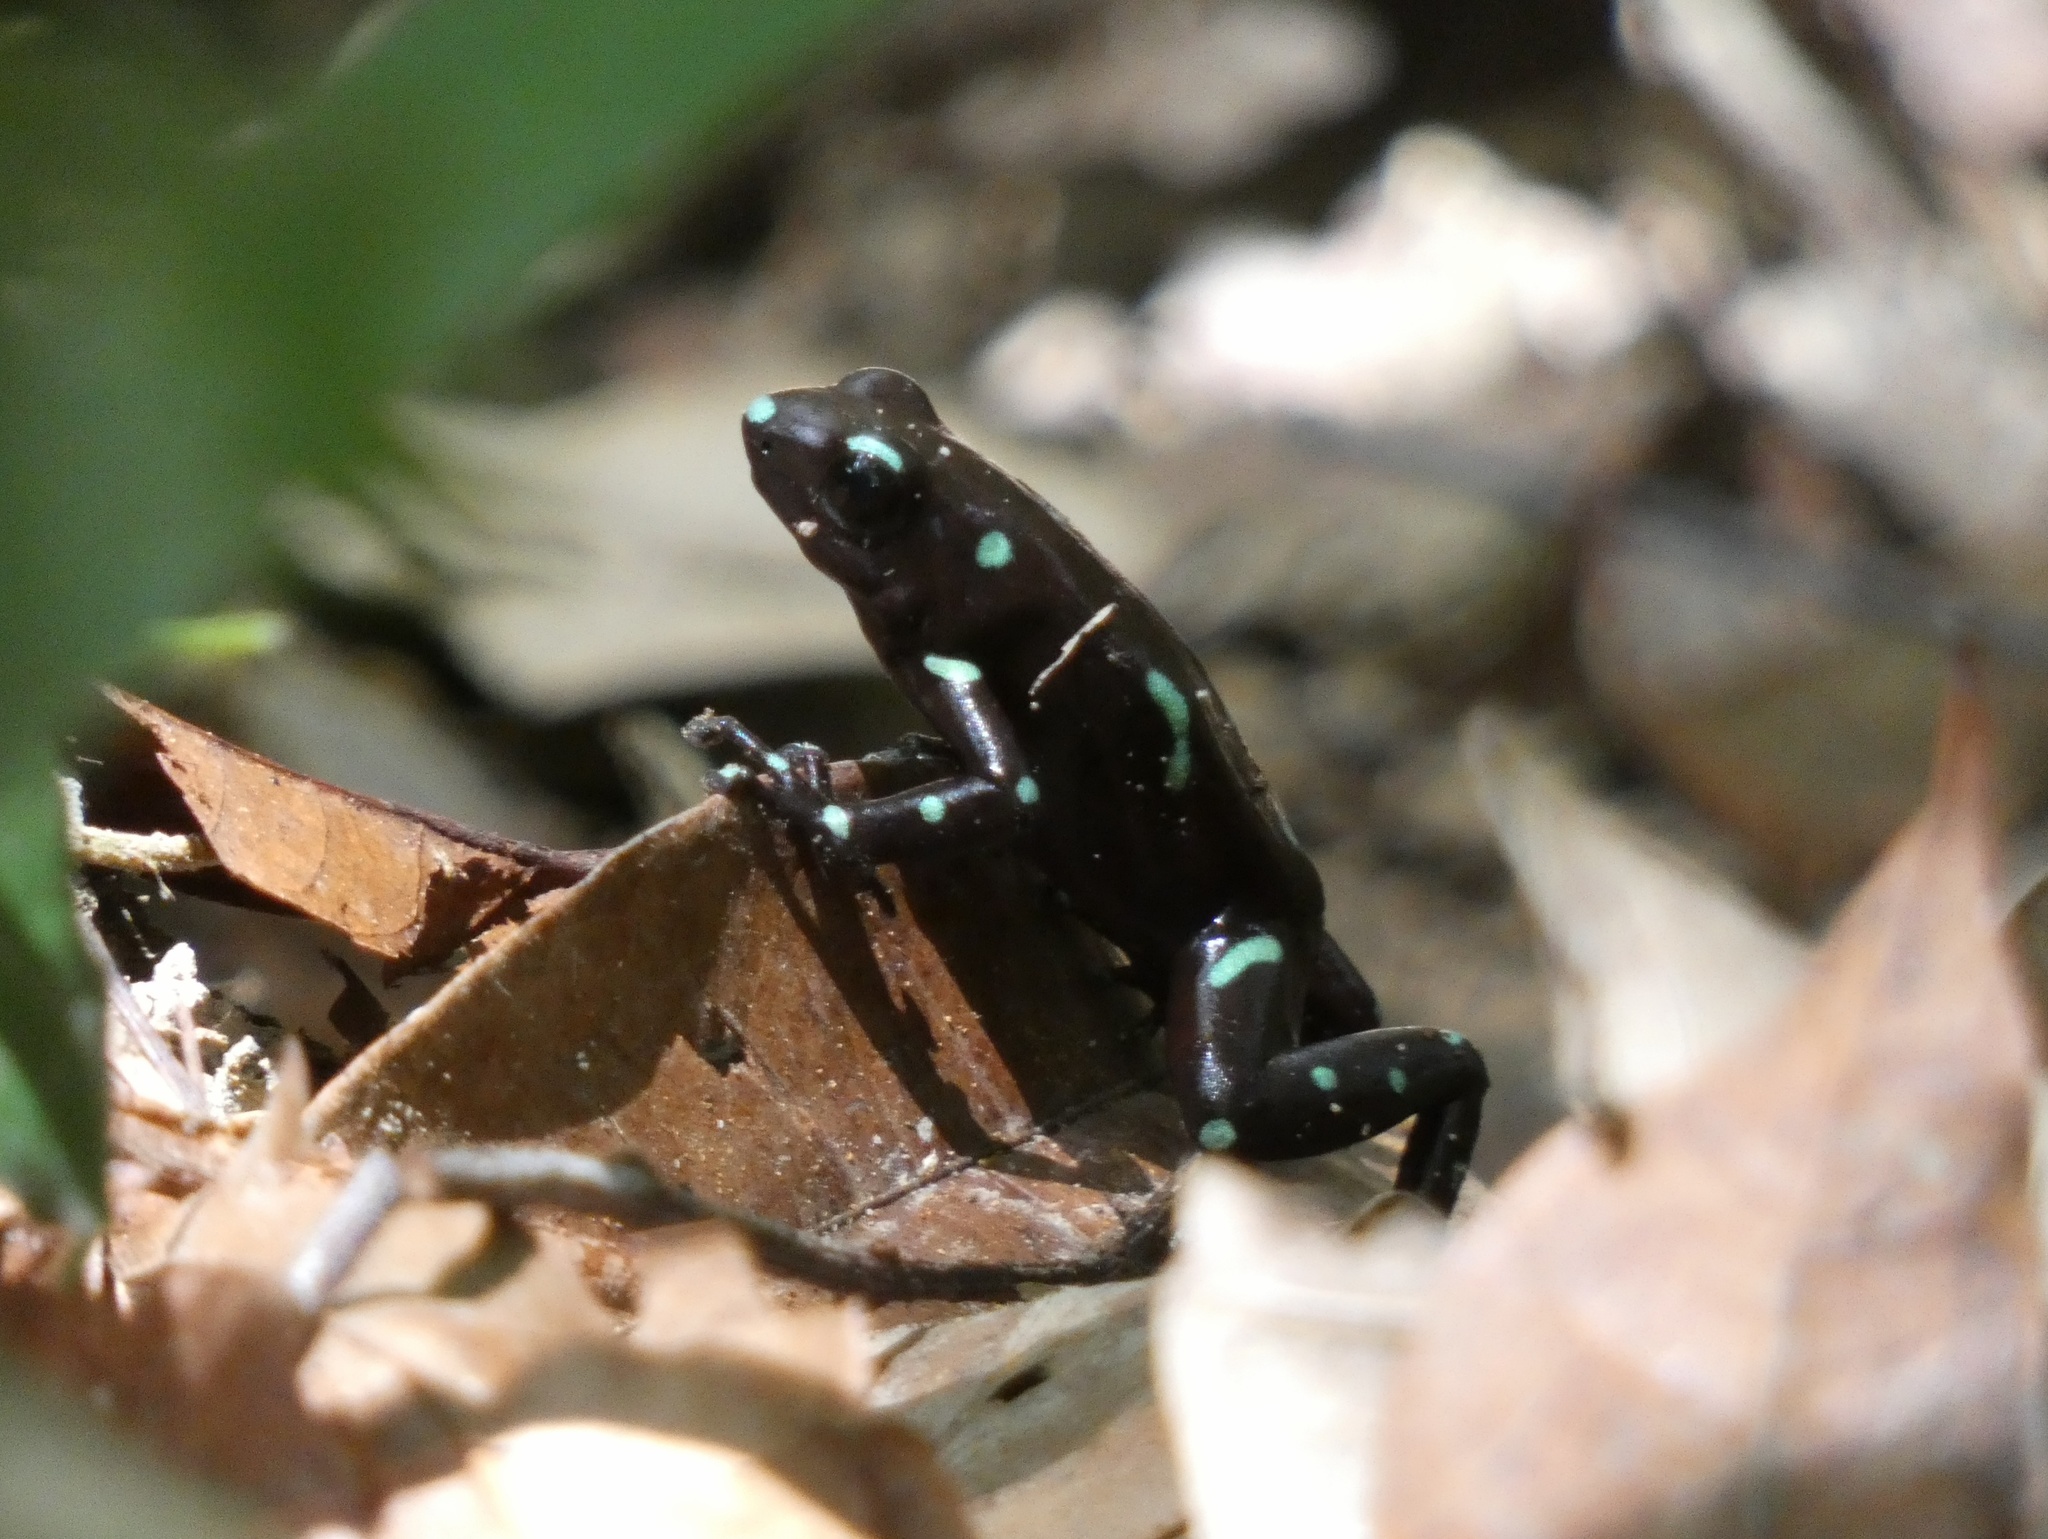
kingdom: Animalia
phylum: Chordata
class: Amphibia
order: Anura
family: Dendrobatidae
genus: Dendrobates
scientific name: Dendrobates auratus
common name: Green and black poison dart frog
